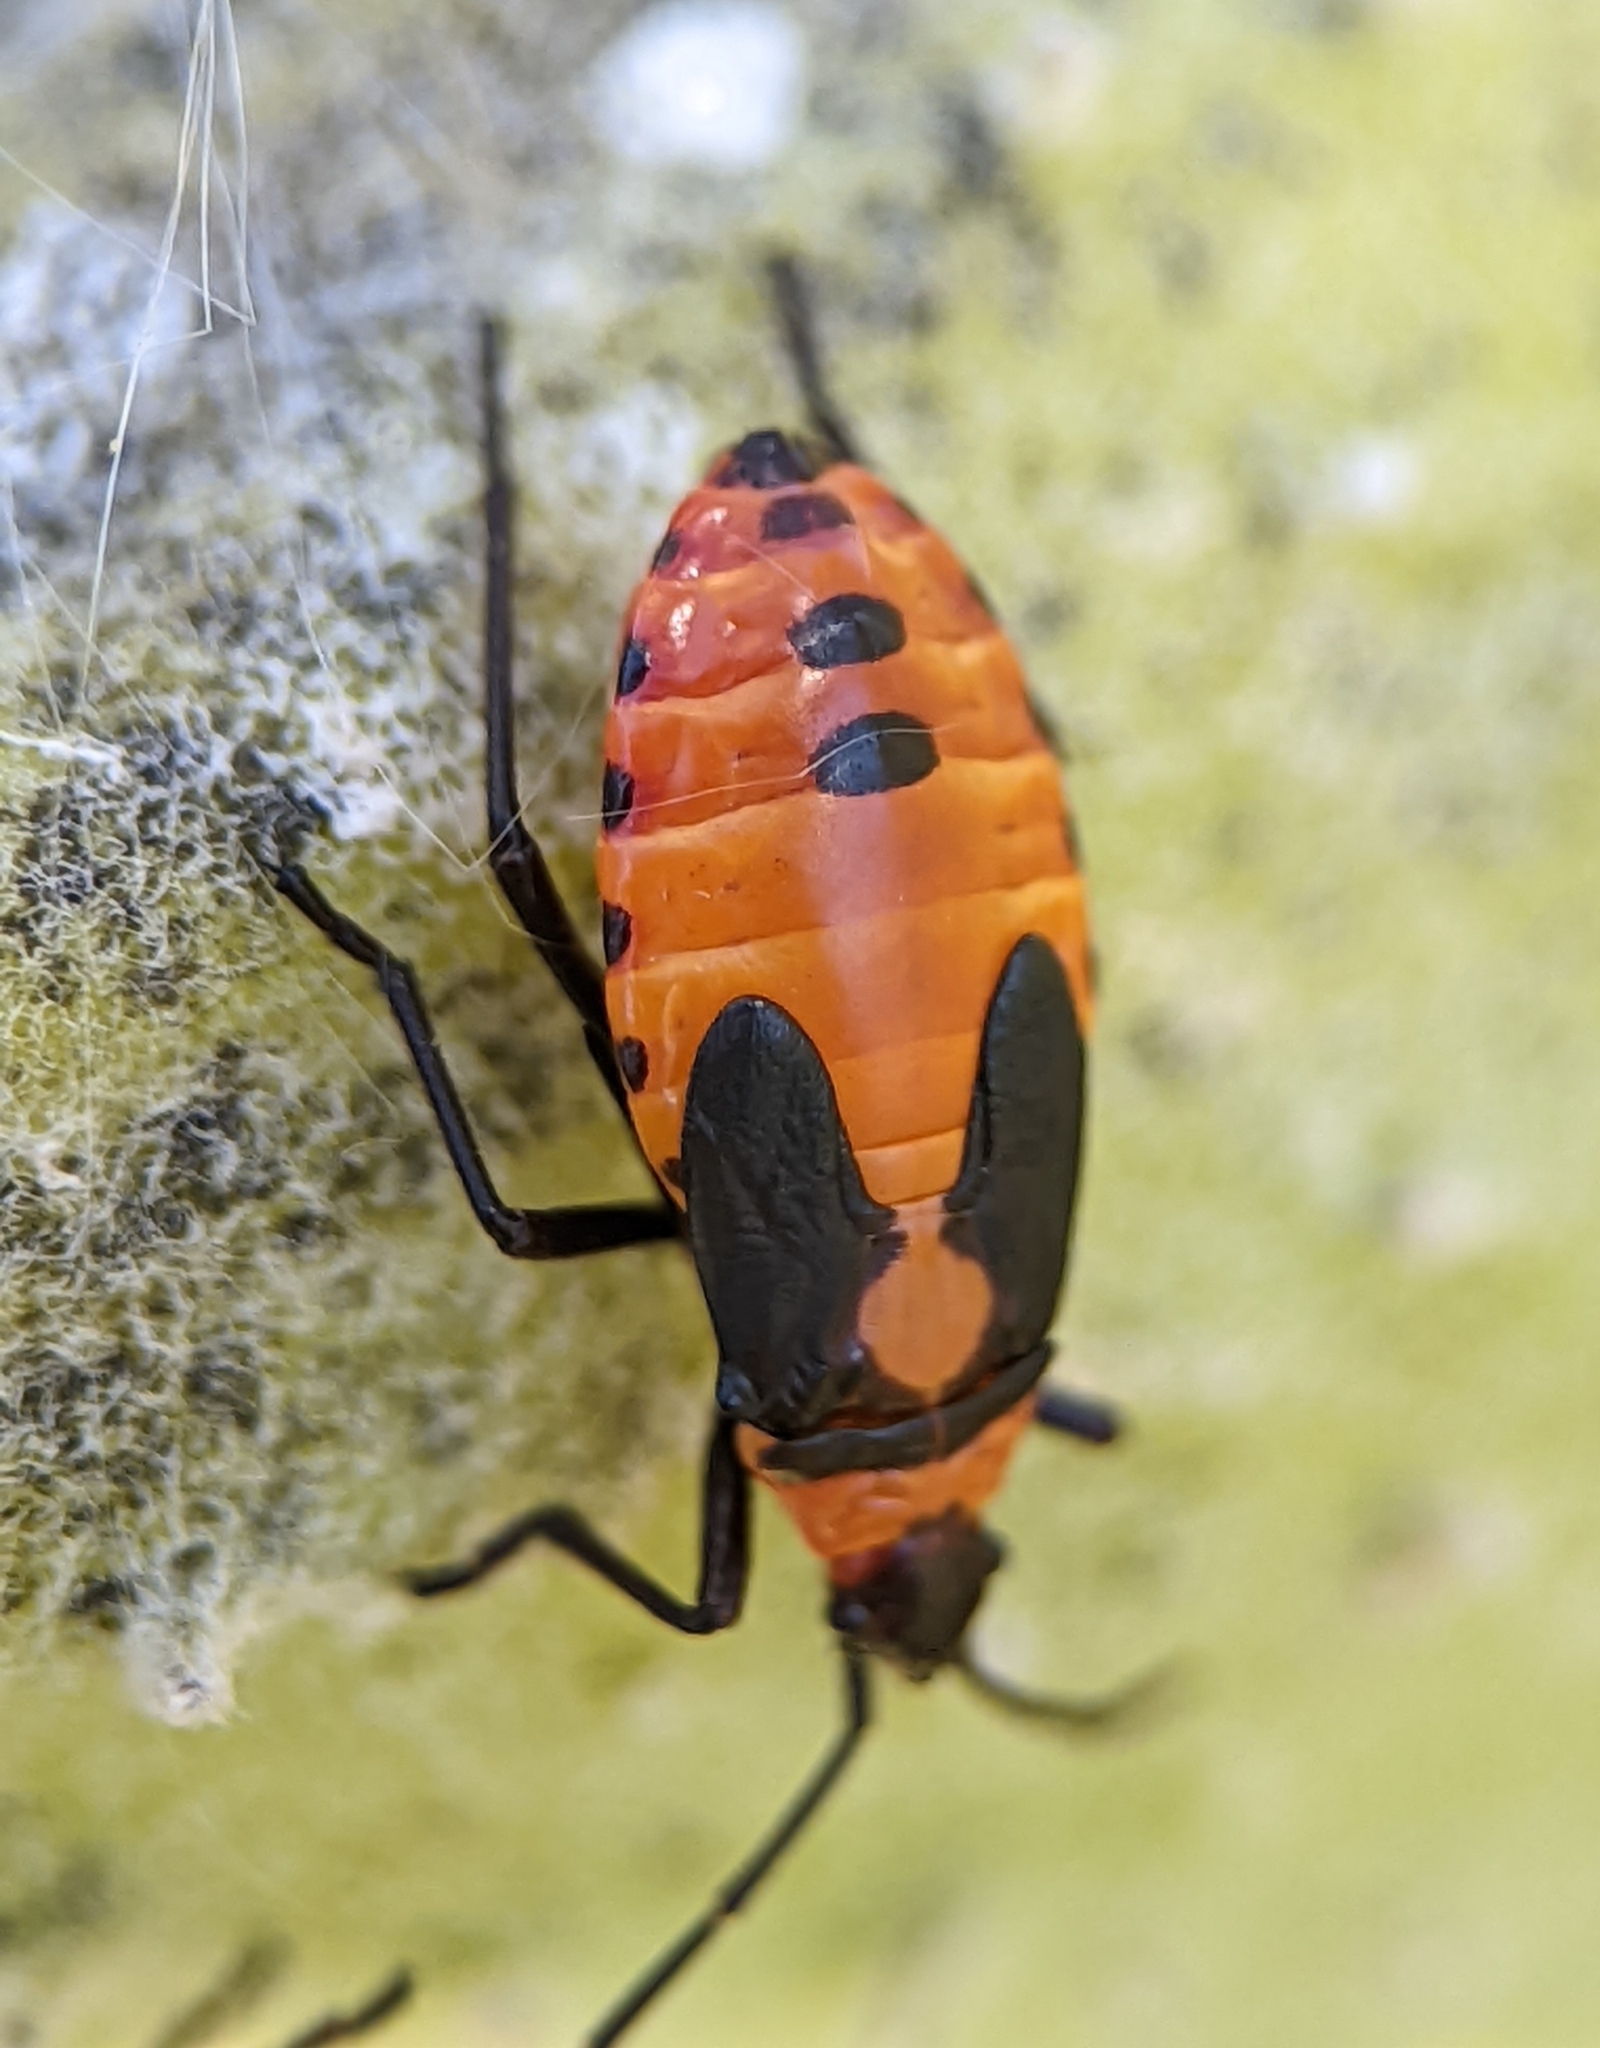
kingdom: Animalia
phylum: Arthropoda
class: Insecta
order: Hemiptera
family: Lygaeidae
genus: Oncopeltus
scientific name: Oncopeltus fasciatus
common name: Large milkweed bug
